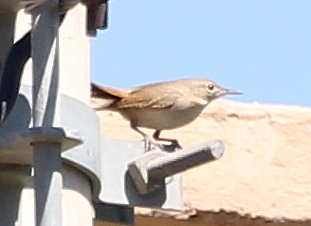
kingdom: Animalia
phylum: Chordata
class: Aves
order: Passeriformes
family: Troglodytidae
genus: Troglodytes
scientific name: Troglodytes aedon
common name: House wren
